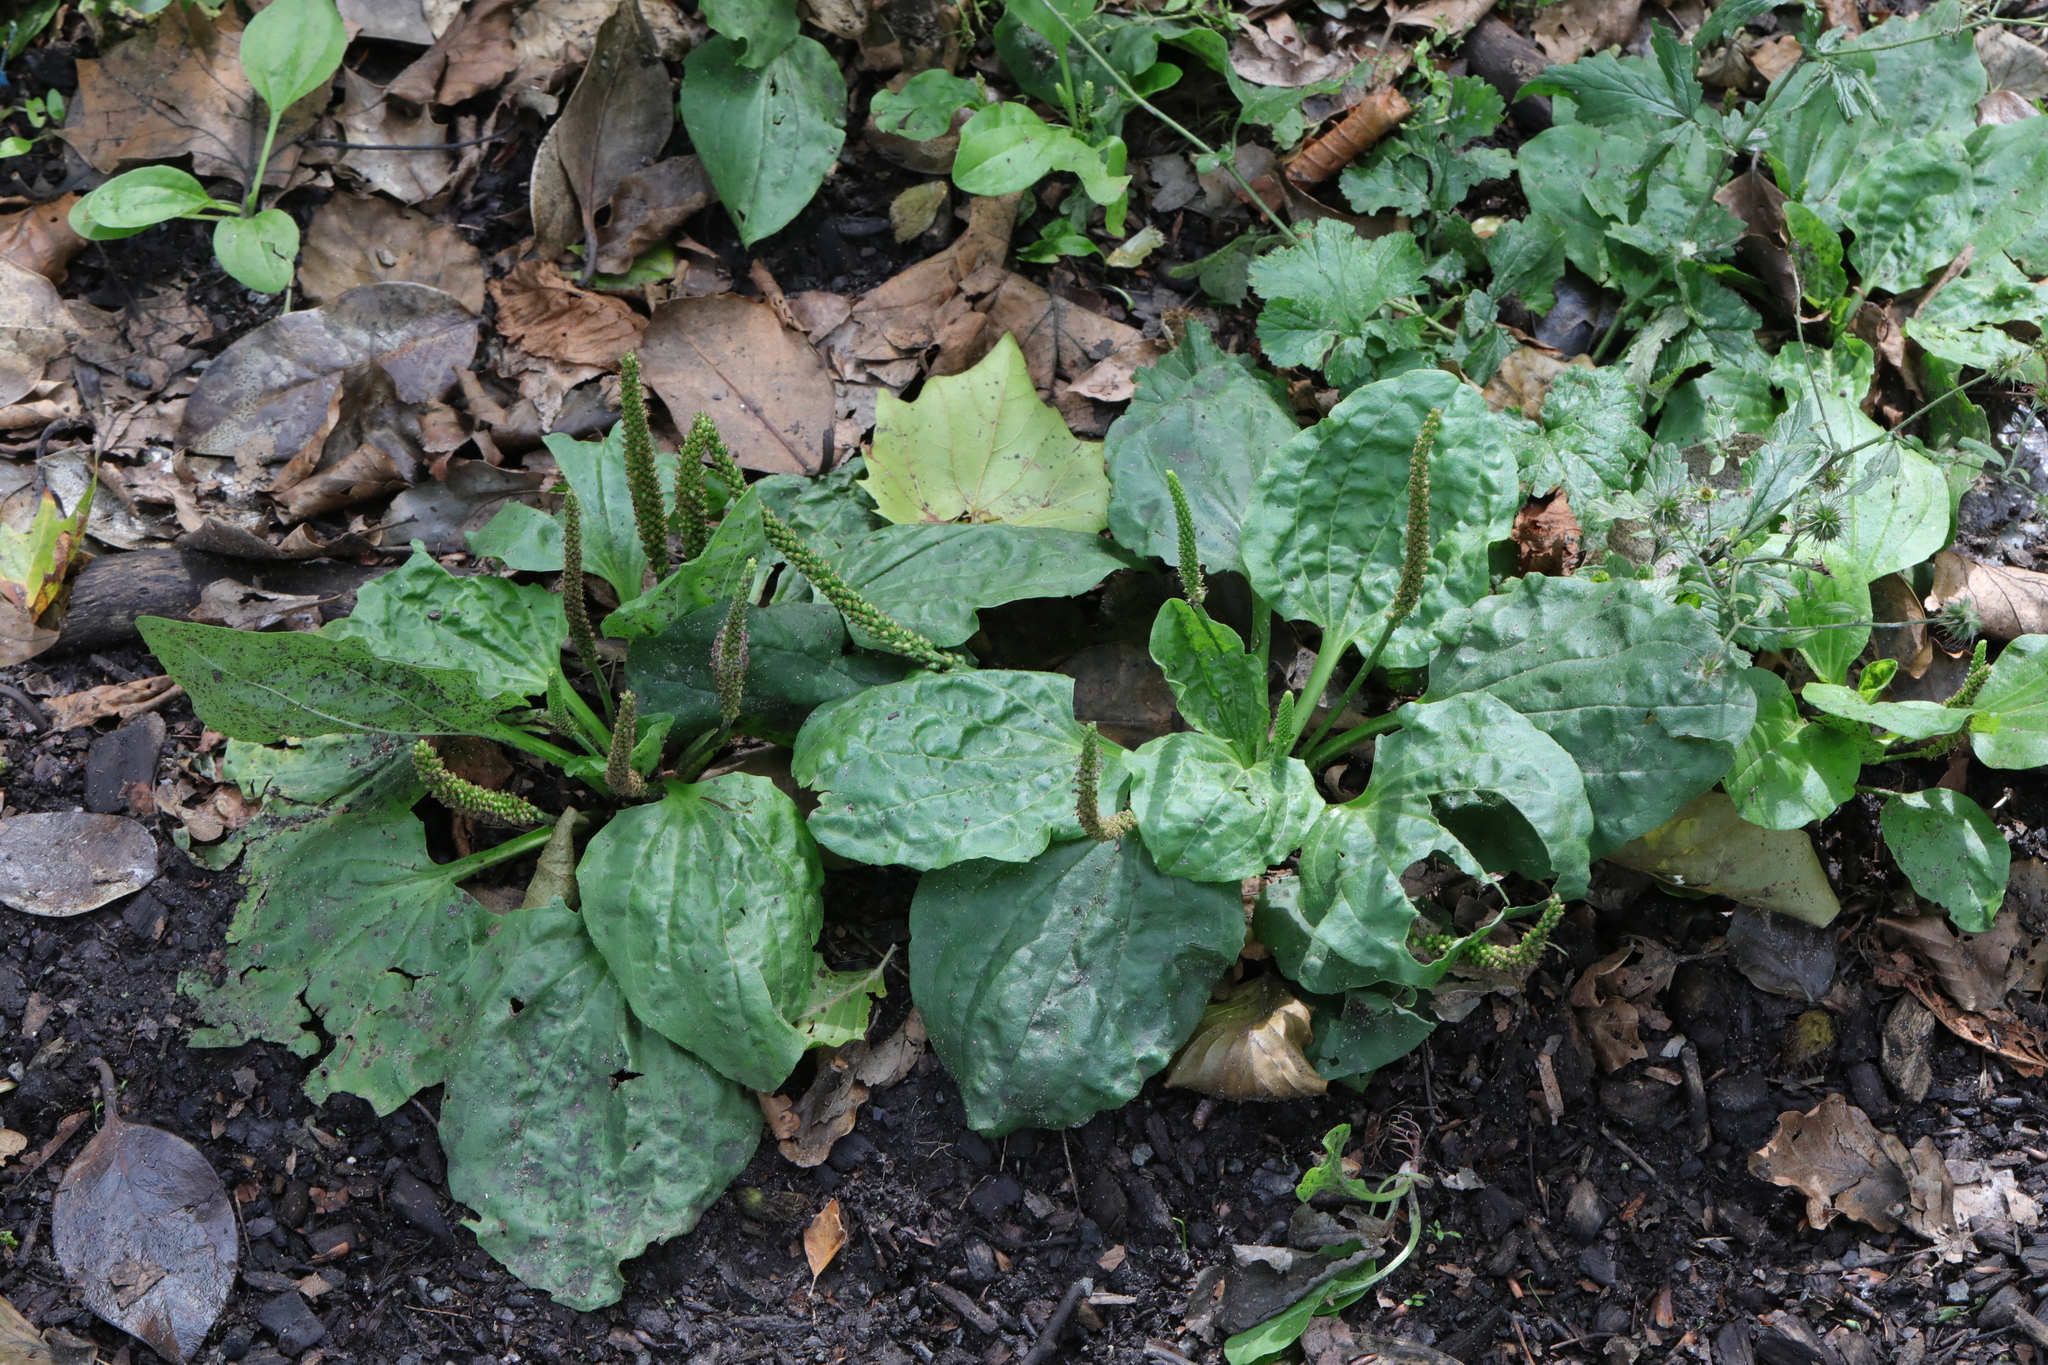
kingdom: Plantae
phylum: Tracheophyta
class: Magnoliopsida
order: Lamiales
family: Plantaginaceae
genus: Plantago
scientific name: Plantago major
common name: Common plantain
